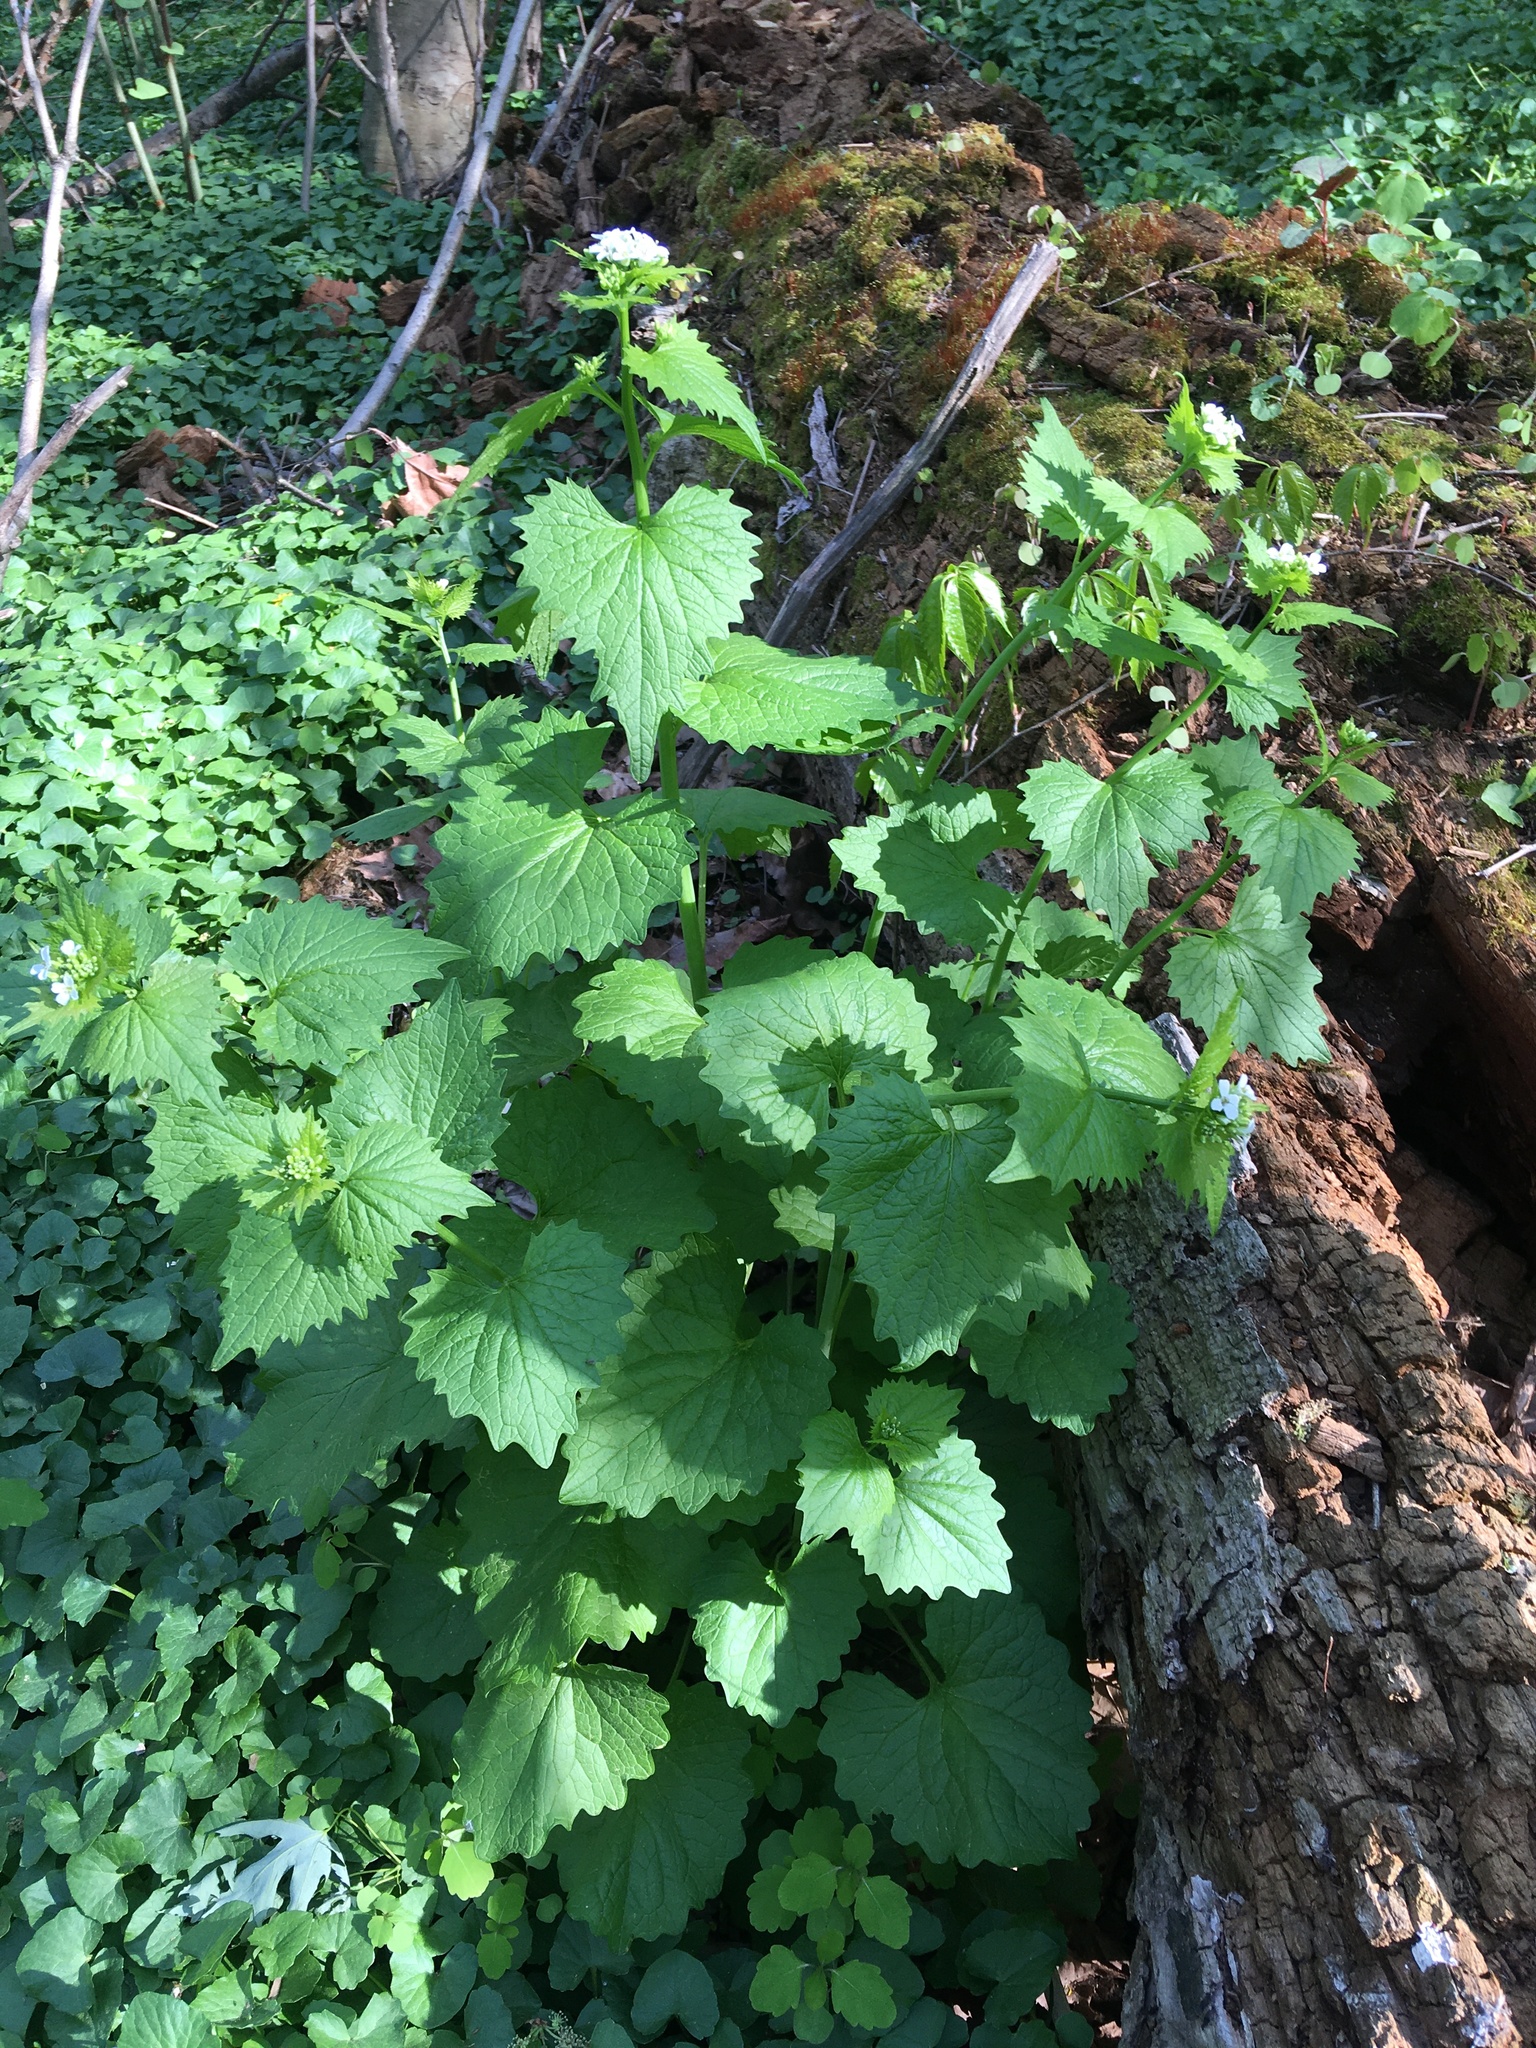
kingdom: Plantae
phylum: Tracheophyta
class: Magnoliopsida
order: Brassicales
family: Brassicaceae
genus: Alliaria
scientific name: Alliaria petiolata
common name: Garlic mustard
